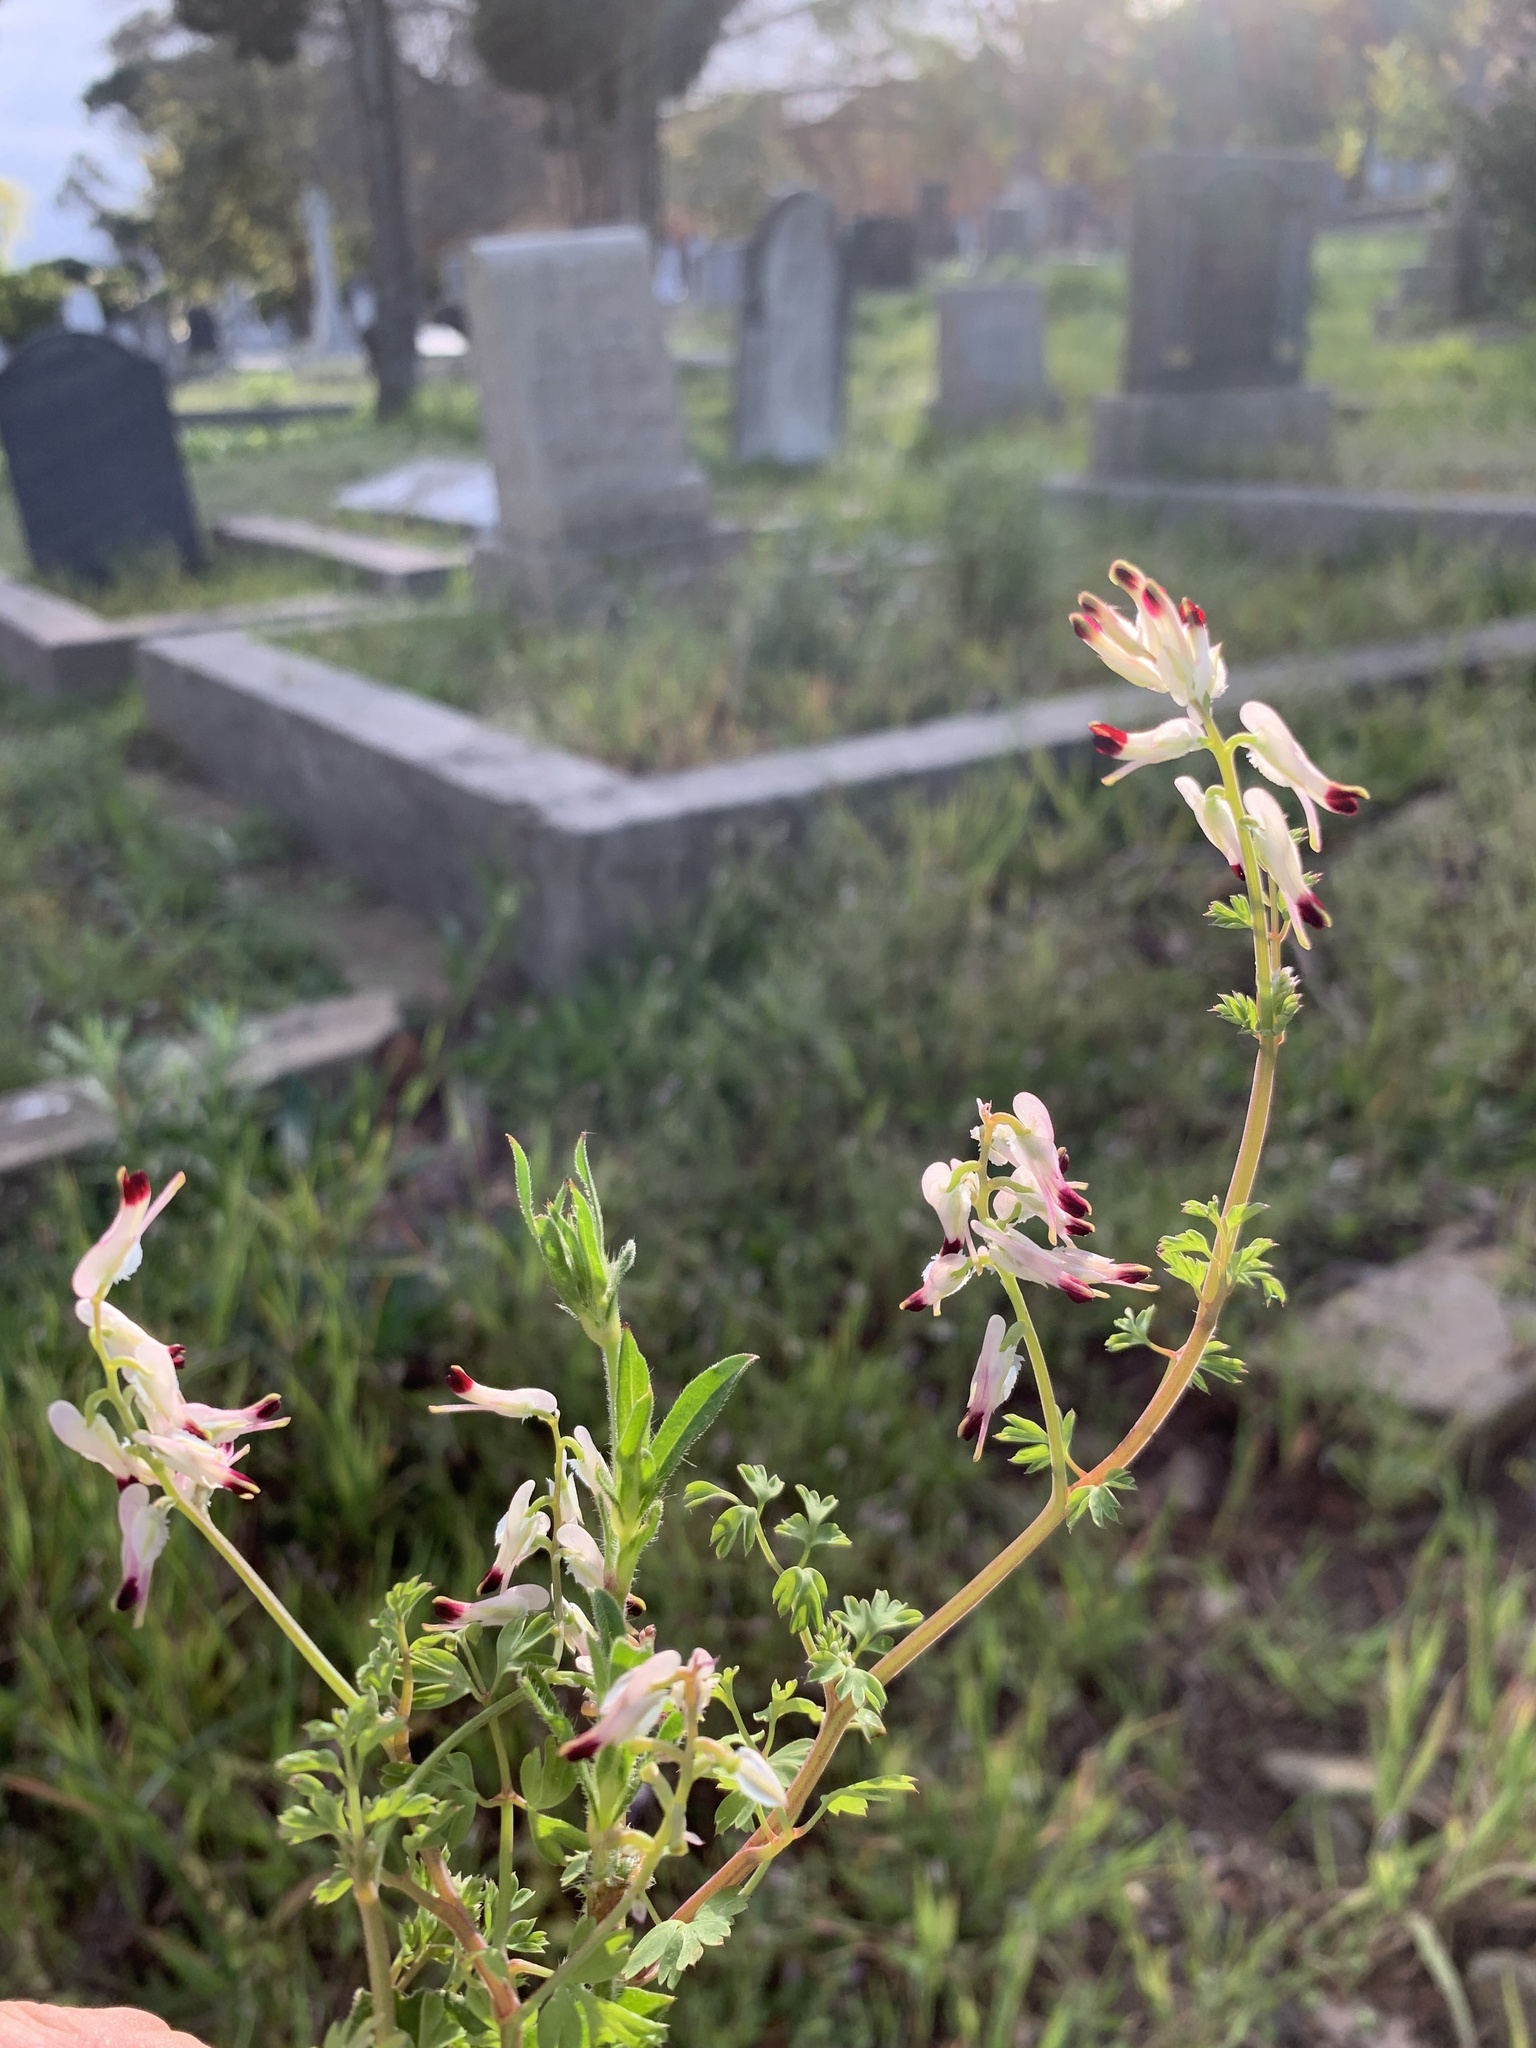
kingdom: Plantae
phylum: Tracheophyta
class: Magnoliopsida
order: Ranunculales
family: Papaveraceae
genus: Fumaria
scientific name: Fumaria capreolata
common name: White ramping-fumitory
